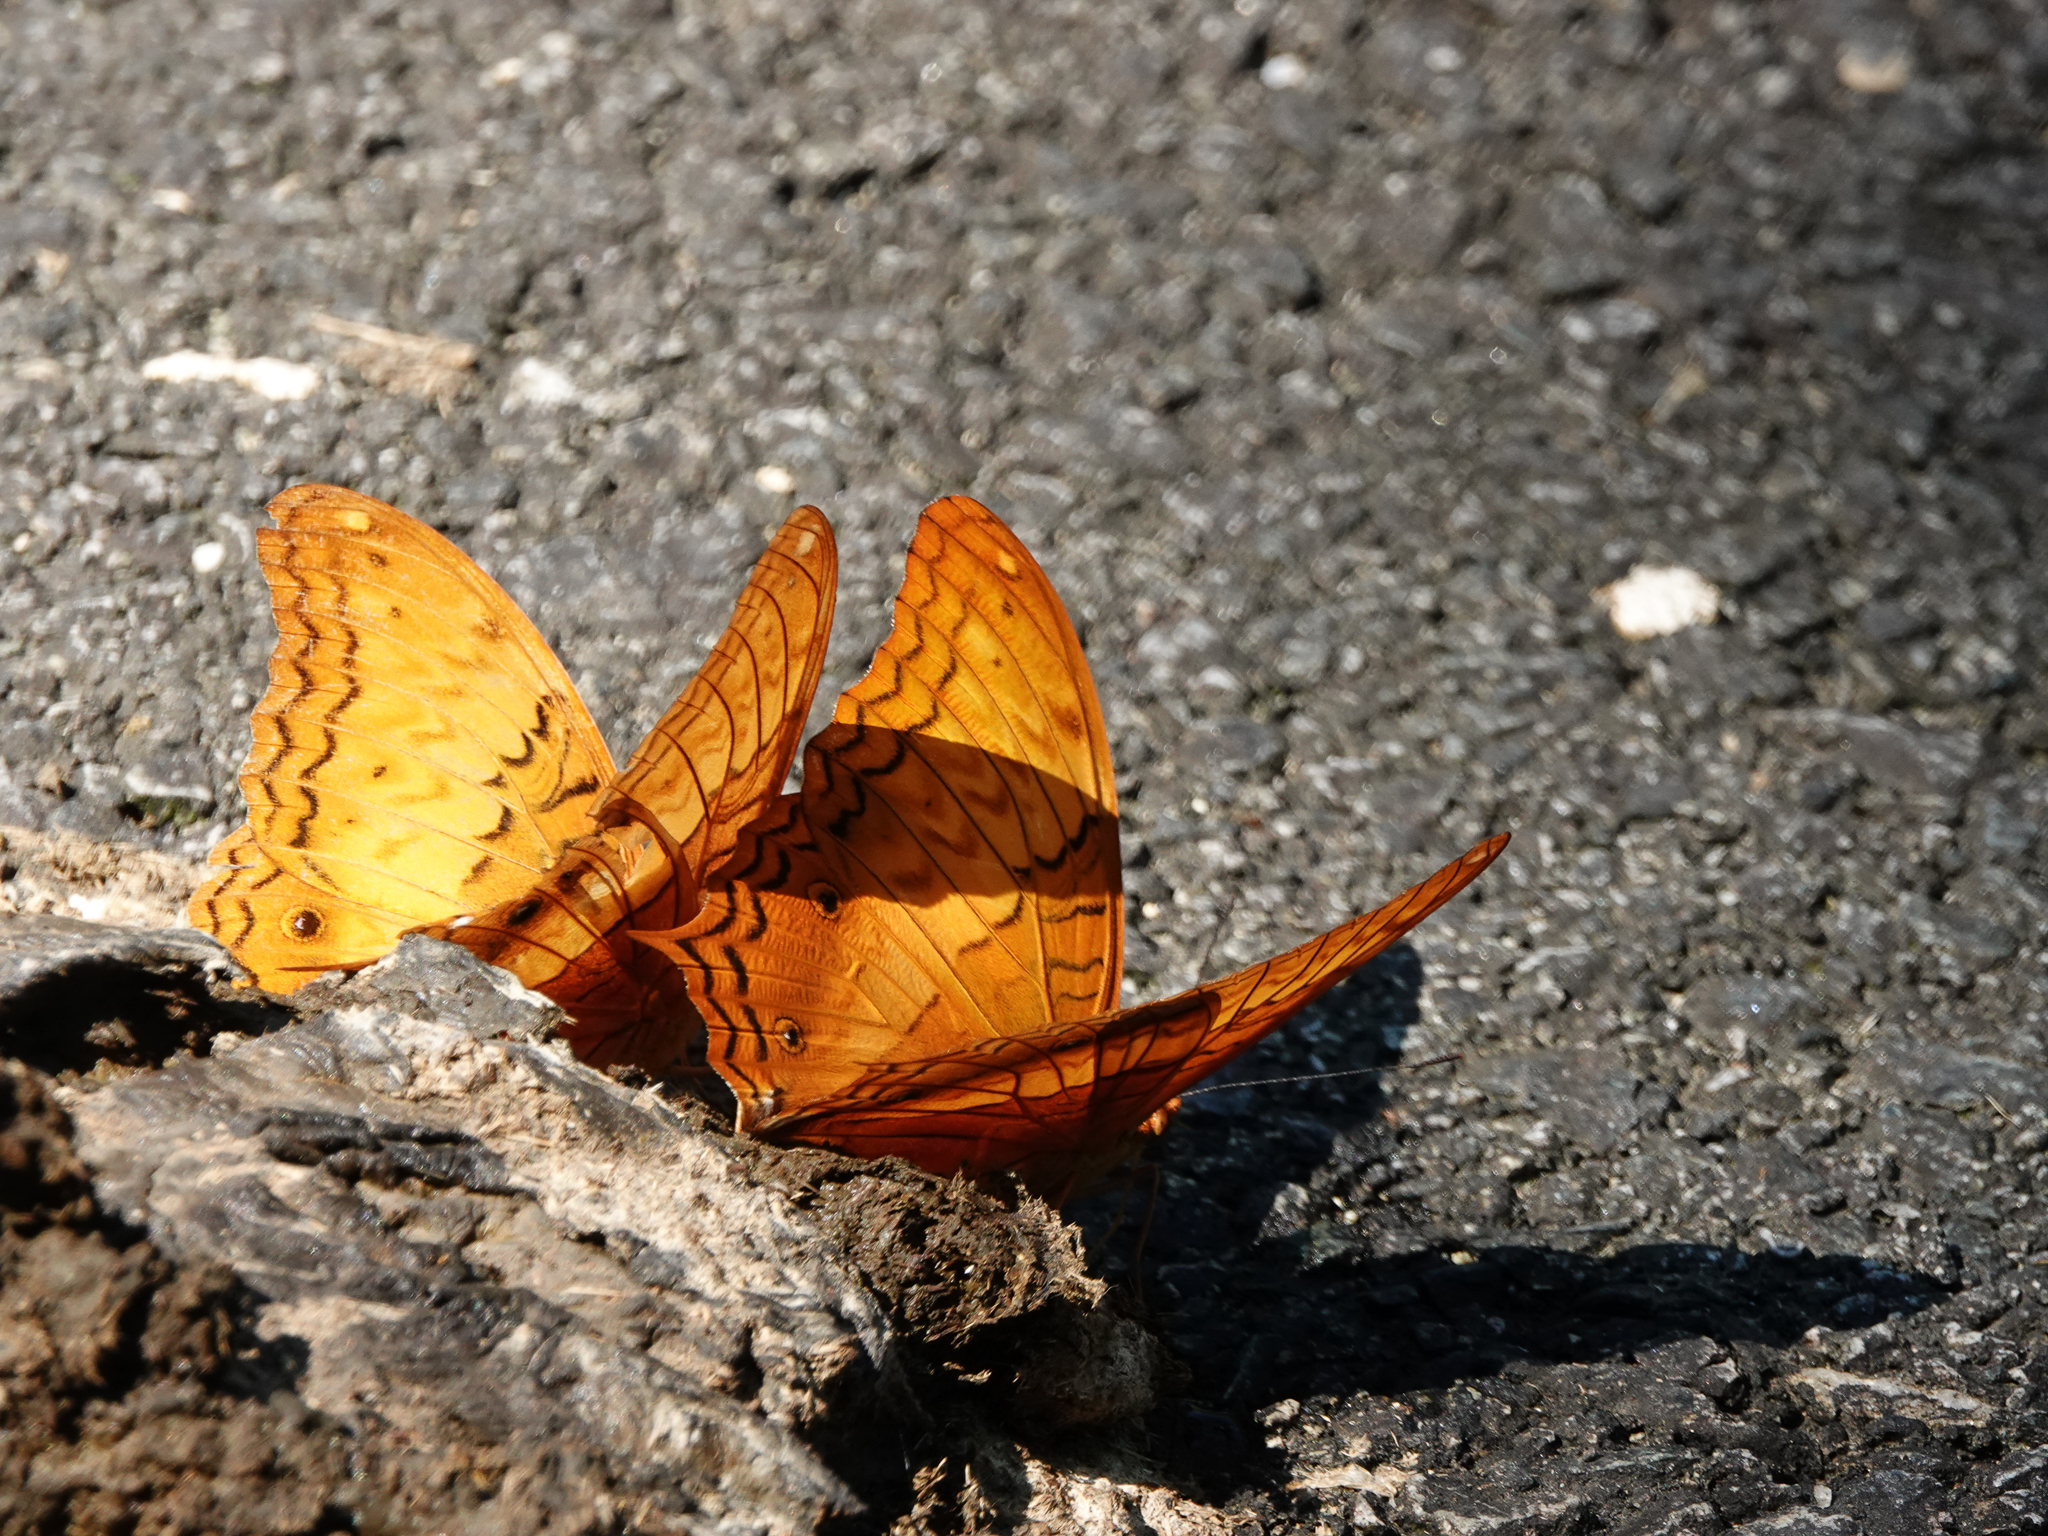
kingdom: Animalia
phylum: Arthropoda
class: Insecta
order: Lepidoptera
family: Nymphalidae
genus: Vindula
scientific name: Vindula erota
